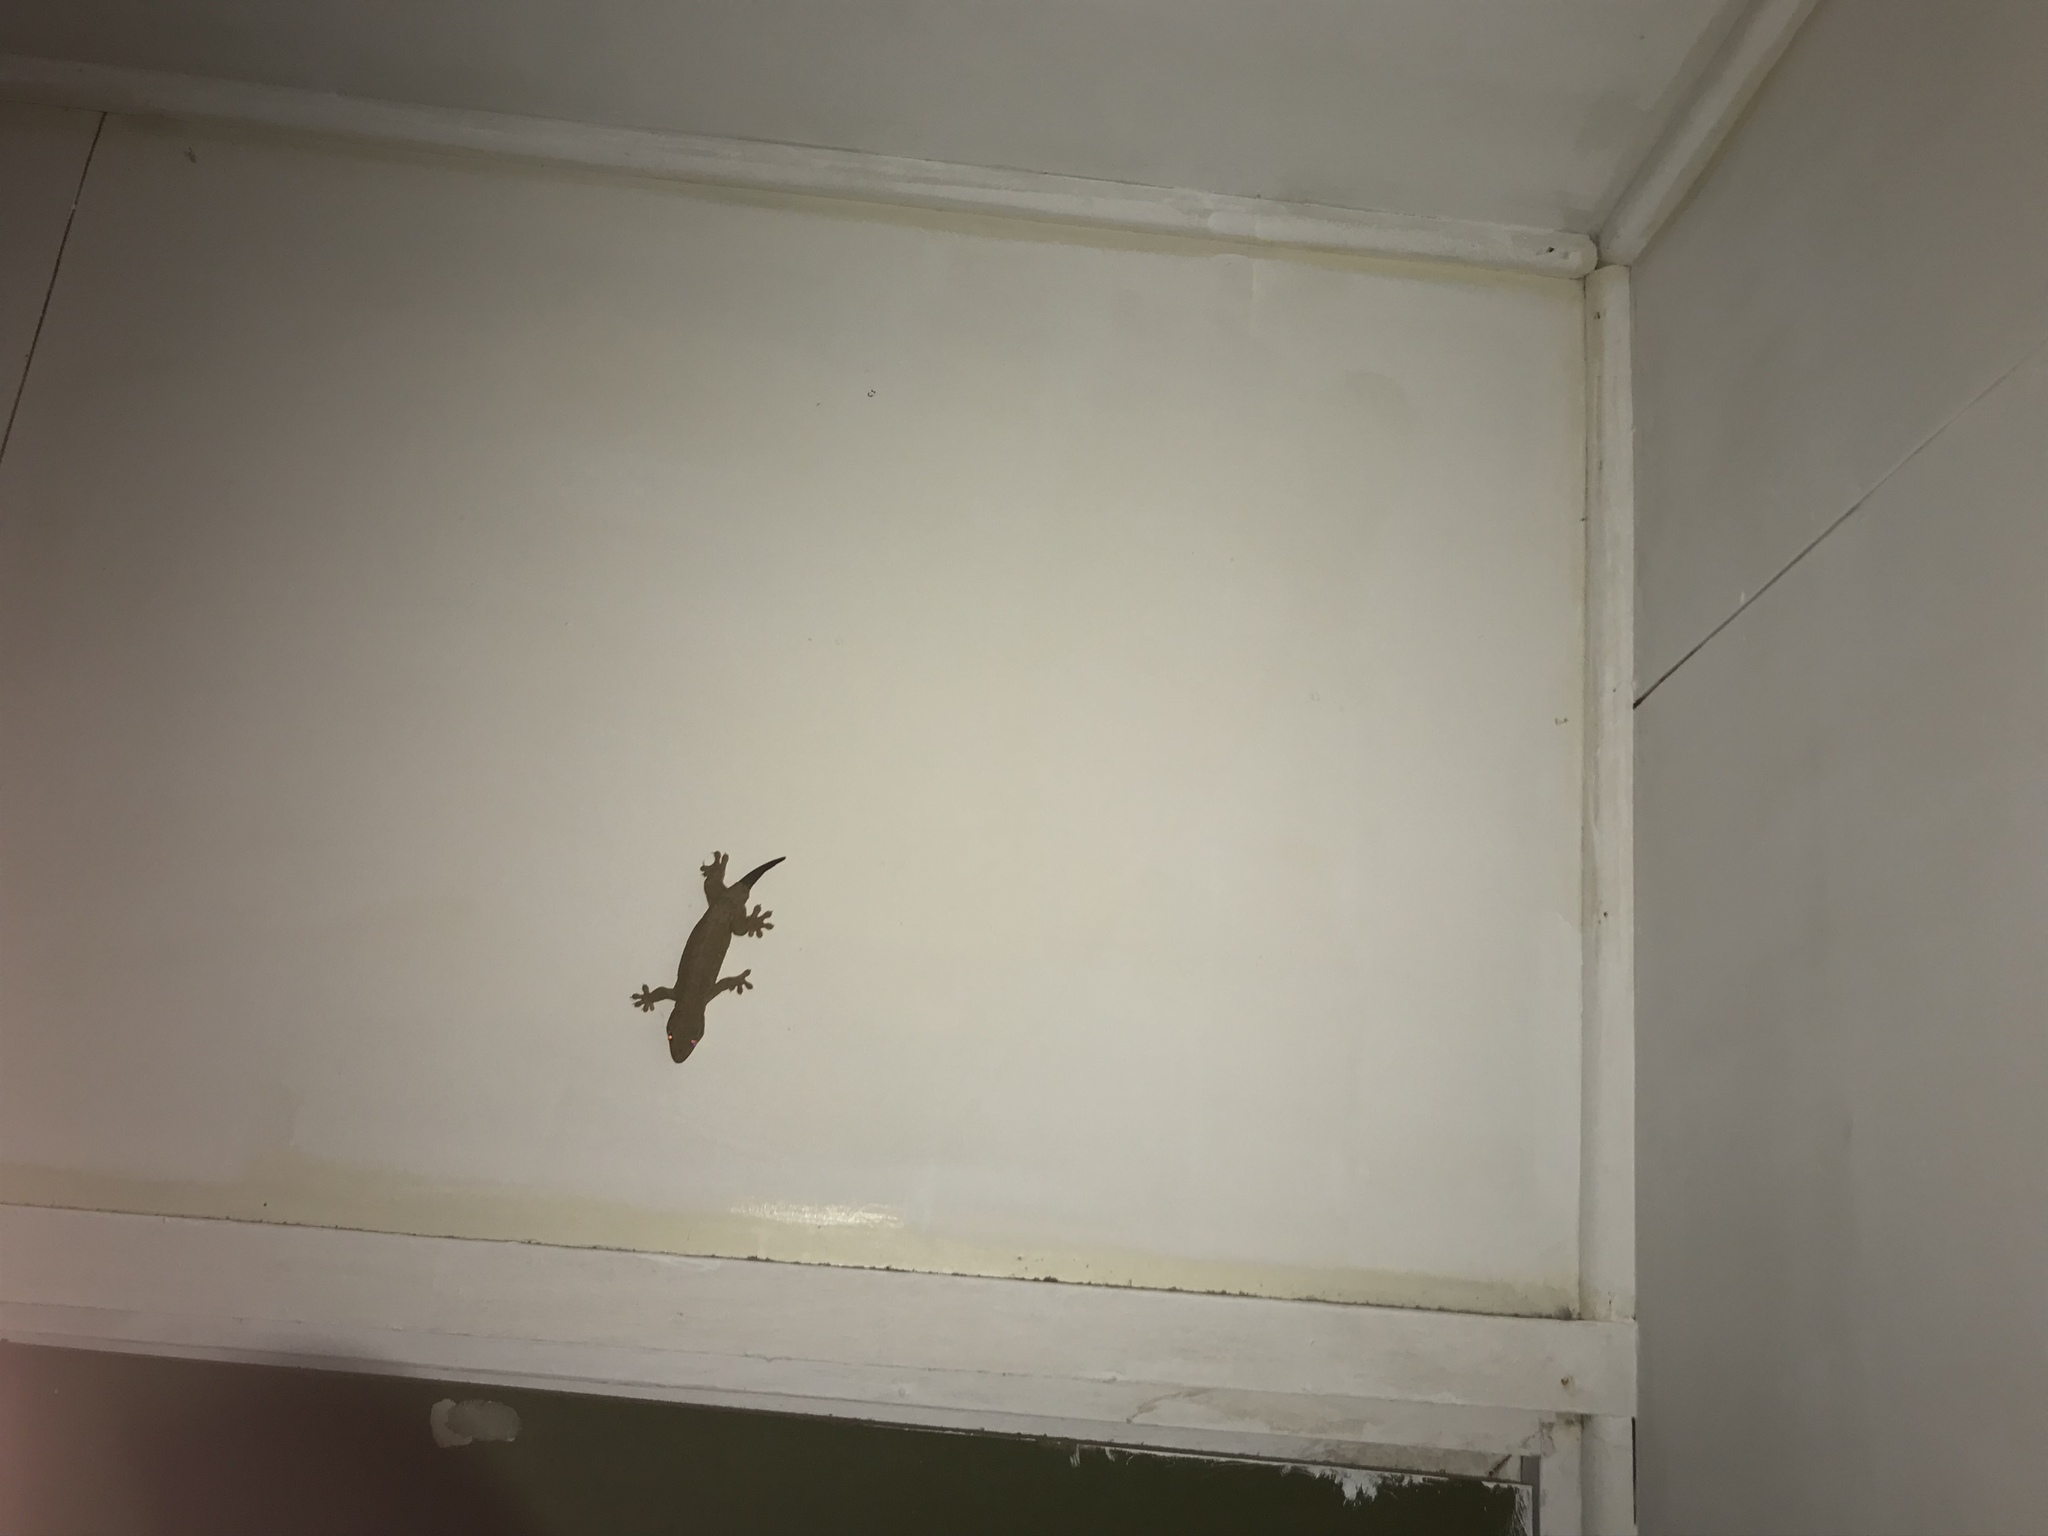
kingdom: Animalia
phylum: Chordata
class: Squamata
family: Gekkonidae
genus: Gehyra
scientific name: Gehyra oceanica
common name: Pacific dtella
